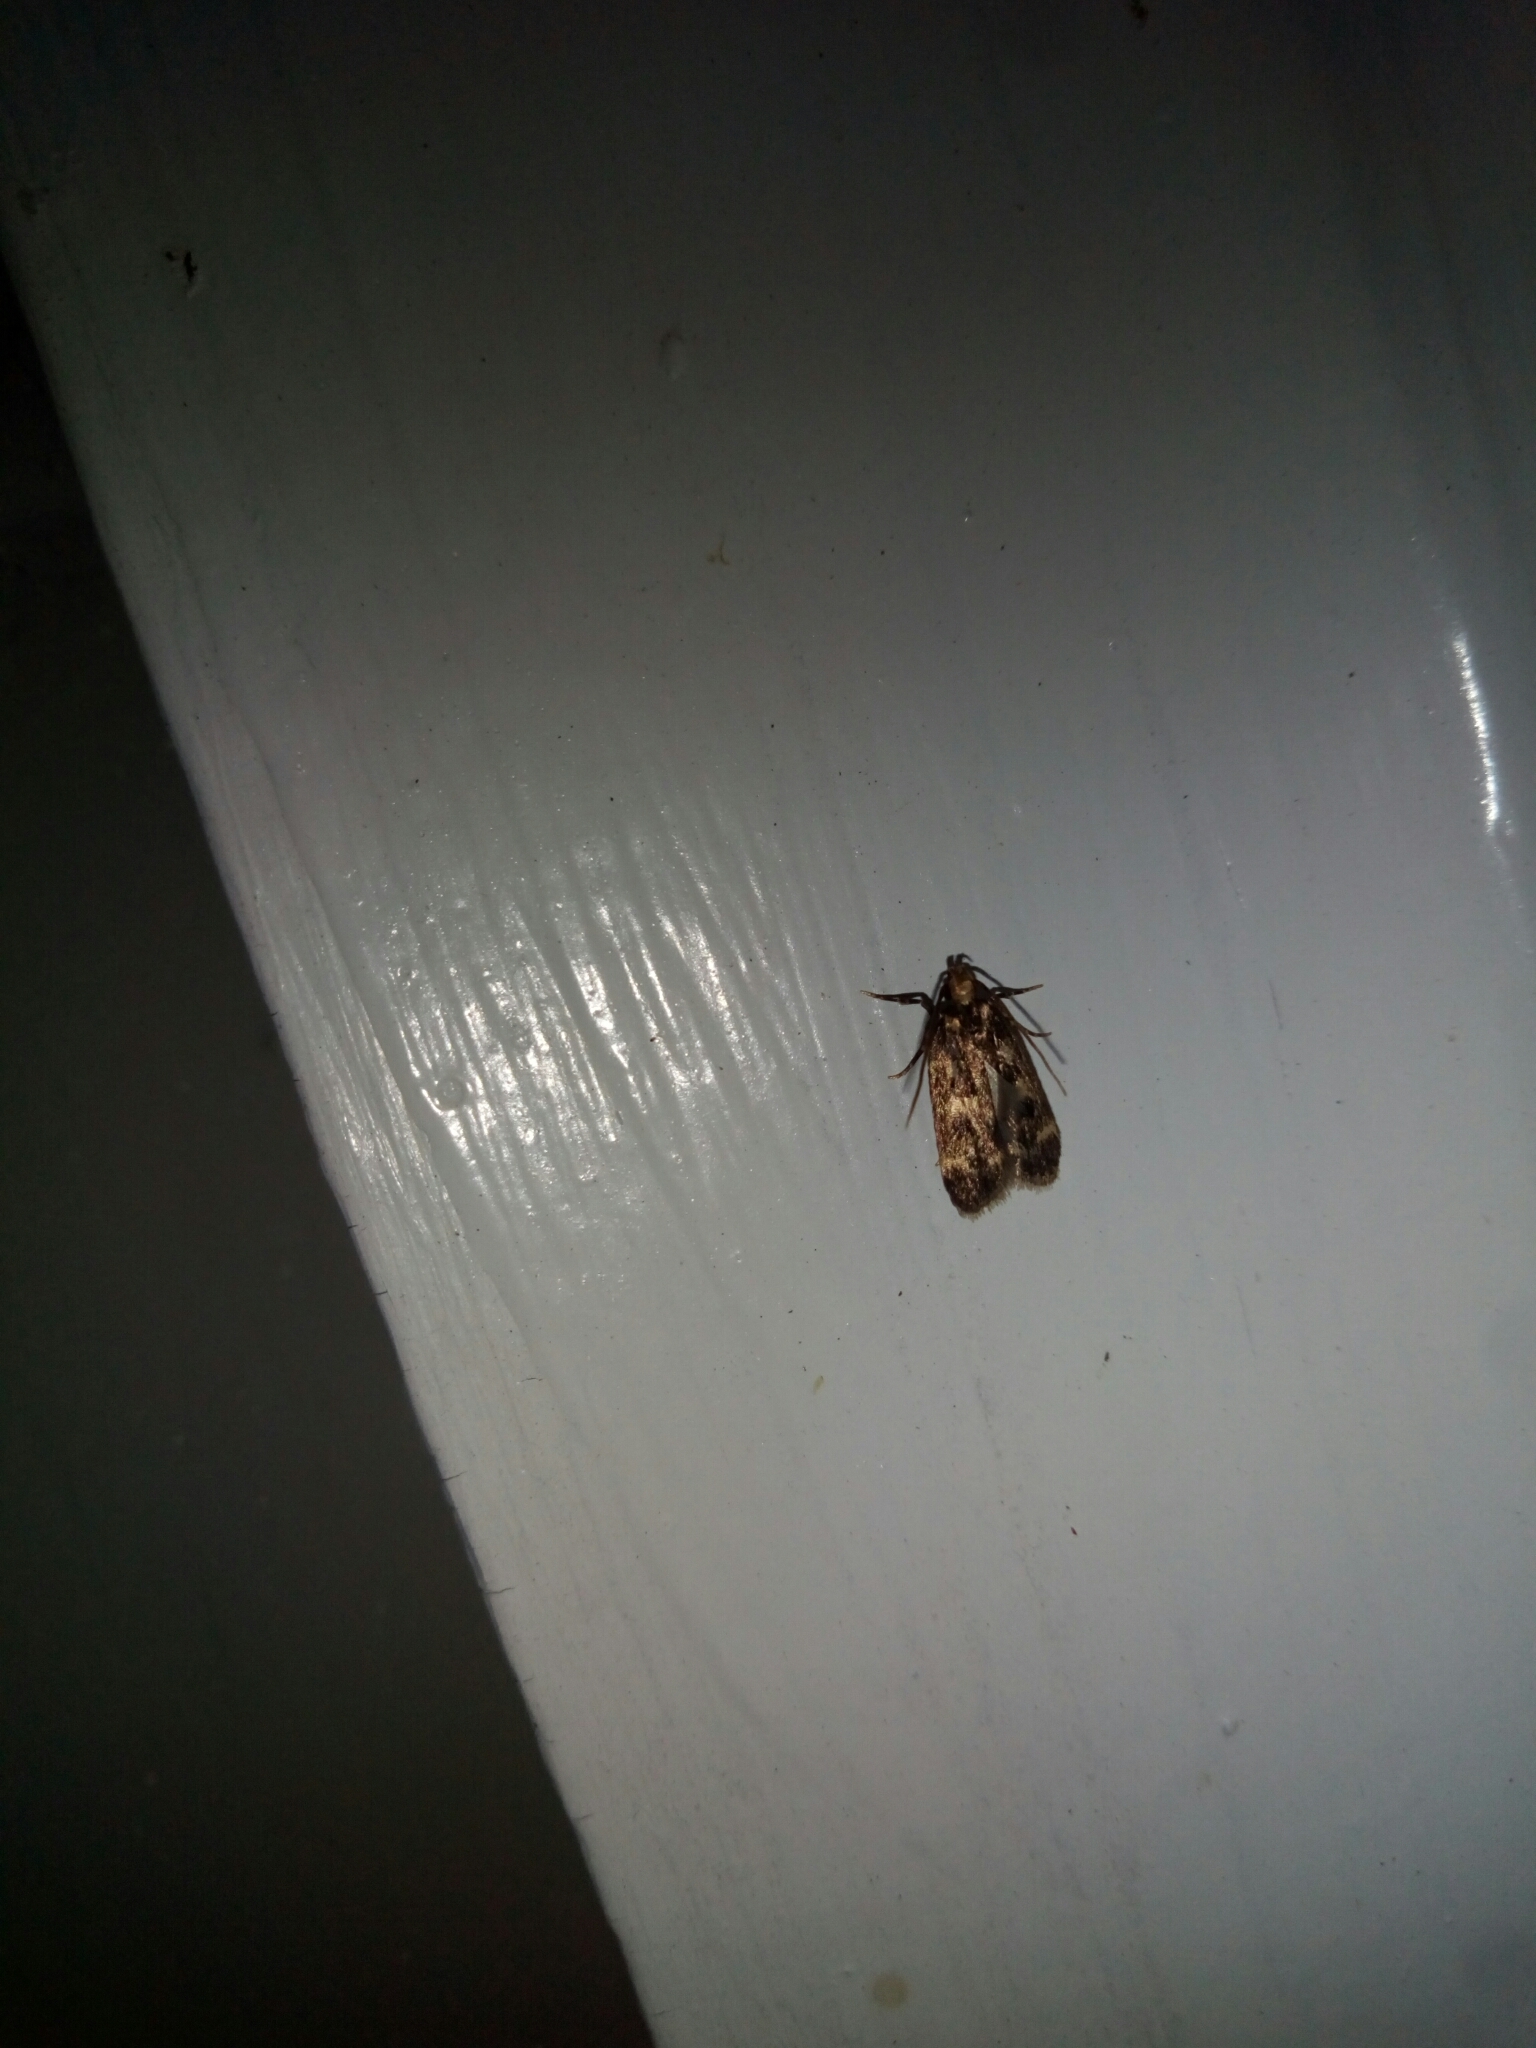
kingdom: Animalia
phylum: Arthropoda
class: Insecta
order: Lepidoptera
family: Lecithoceridae
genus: Martyringa
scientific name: Martyringa latipennis
